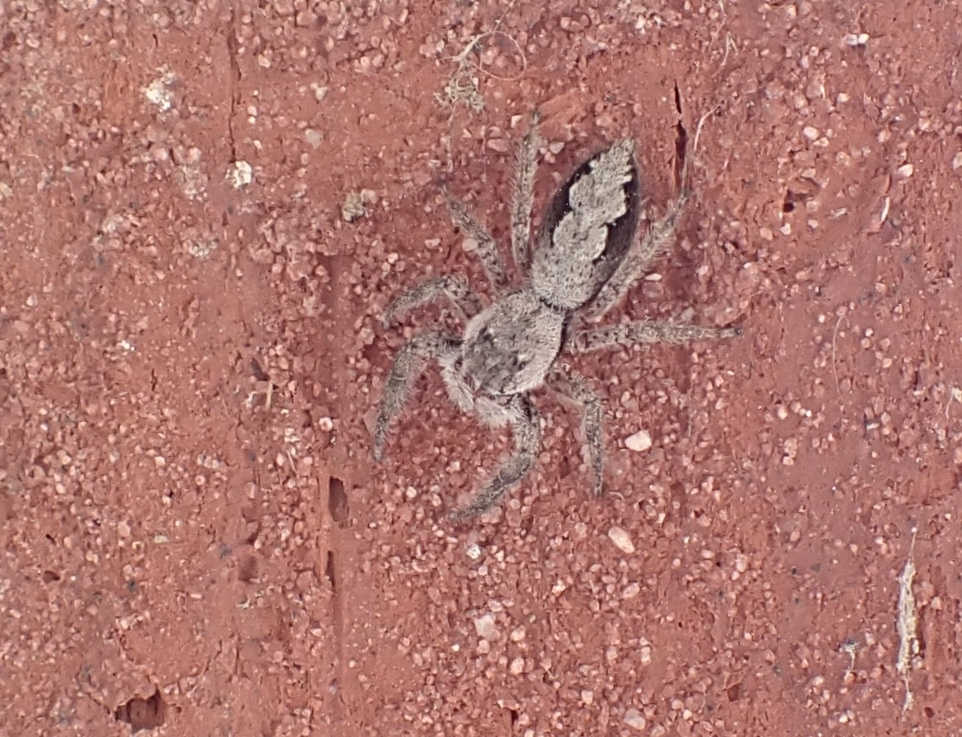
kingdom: Animalia
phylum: Arthropoda
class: Arachnida
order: Araneae
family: Salticidae
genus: Platycryptus
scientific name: Platycryptus undatus
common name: Tan jumping spider
